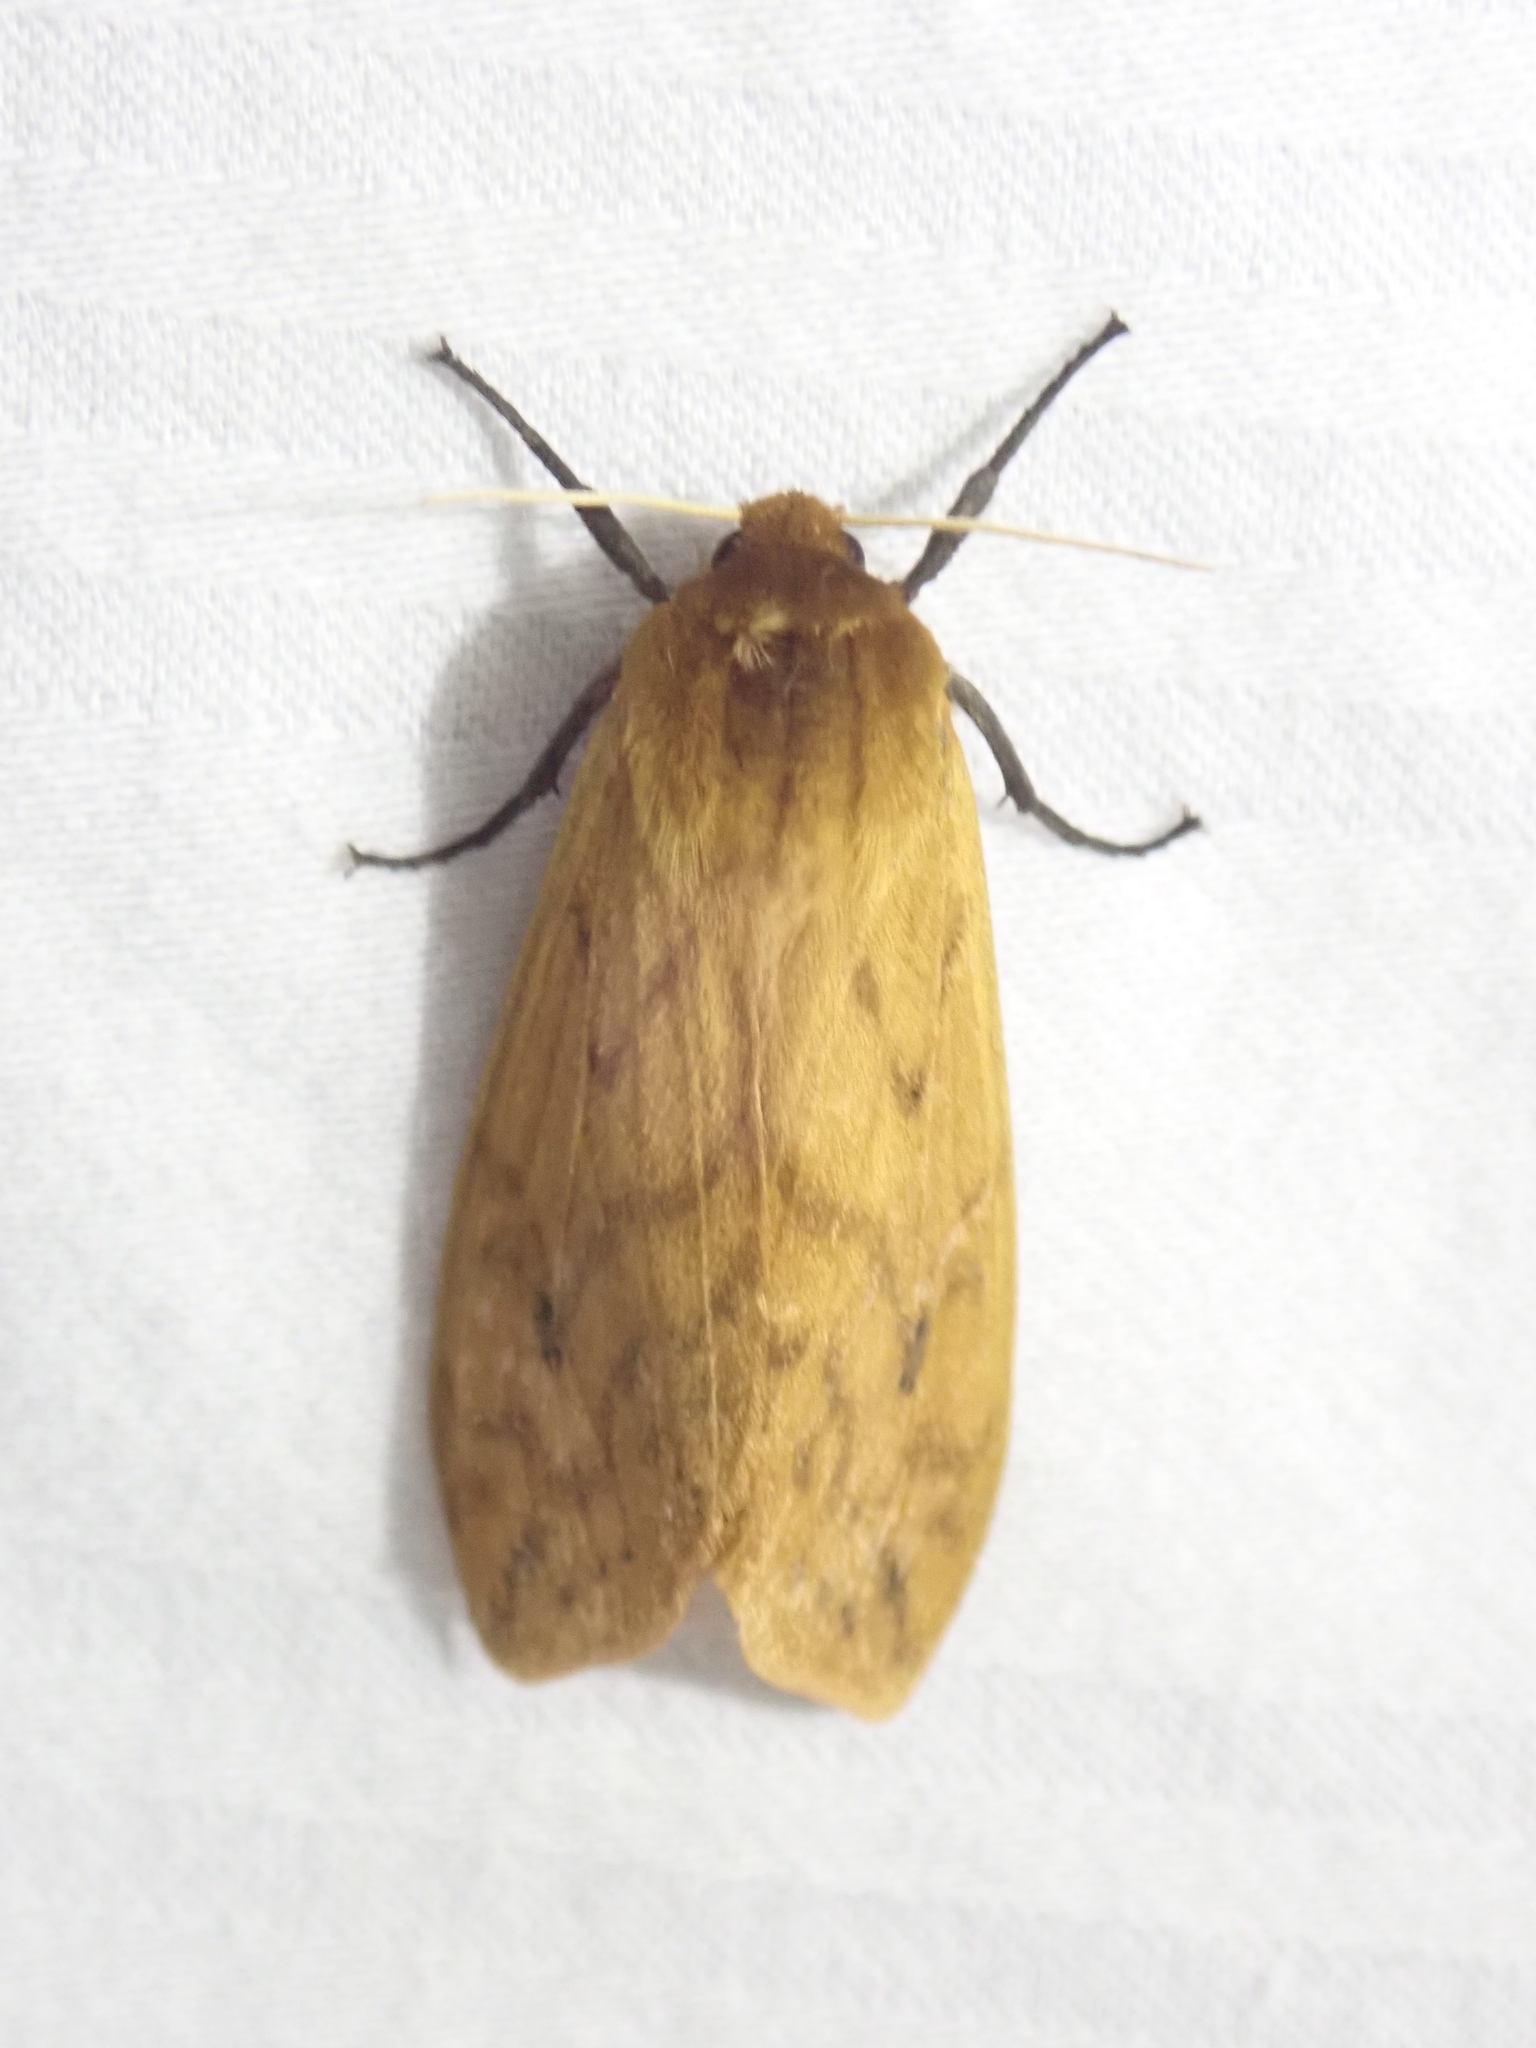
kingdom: Animalia
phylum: Arthropoda
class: Insecta
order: Lepidoptera
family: Erebidae
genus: Pyrrharctia
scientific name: Pyrrharctia isabella
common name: Isabella tiger moth
